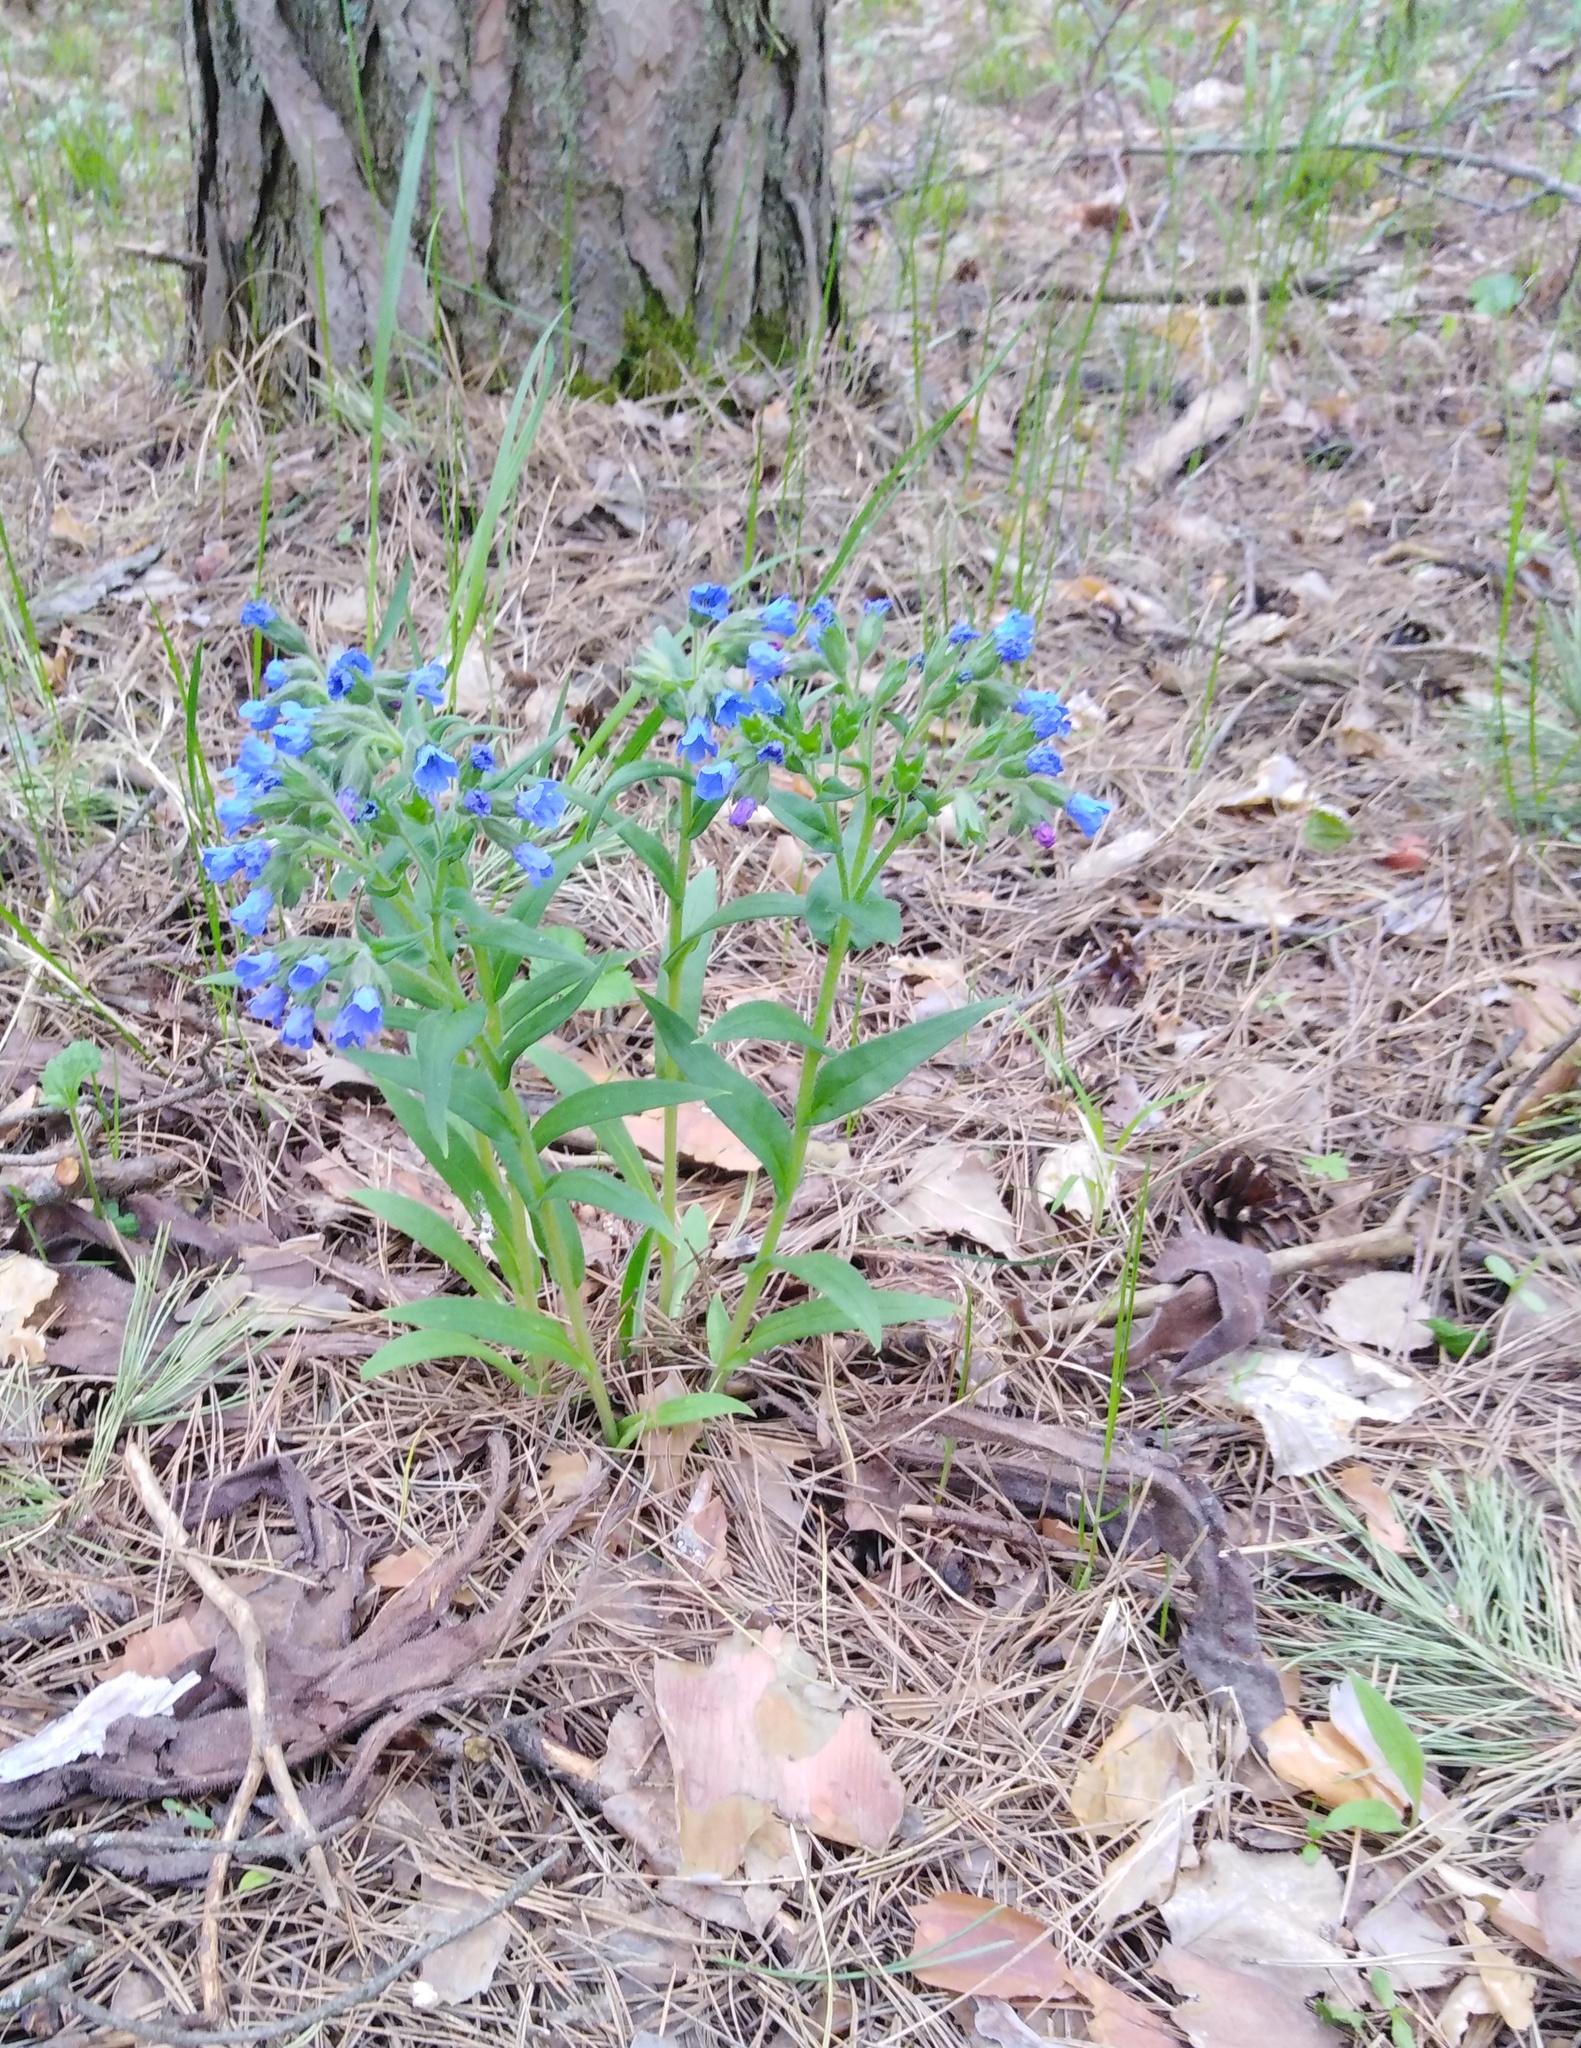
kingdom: Plantae
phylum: Tracheophyta
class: Magnoliopsida
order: Boraginales
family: Boraginaceae
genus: Pulmonaria
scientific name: Pulmonaria angustifolia
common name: Blue cowslip
